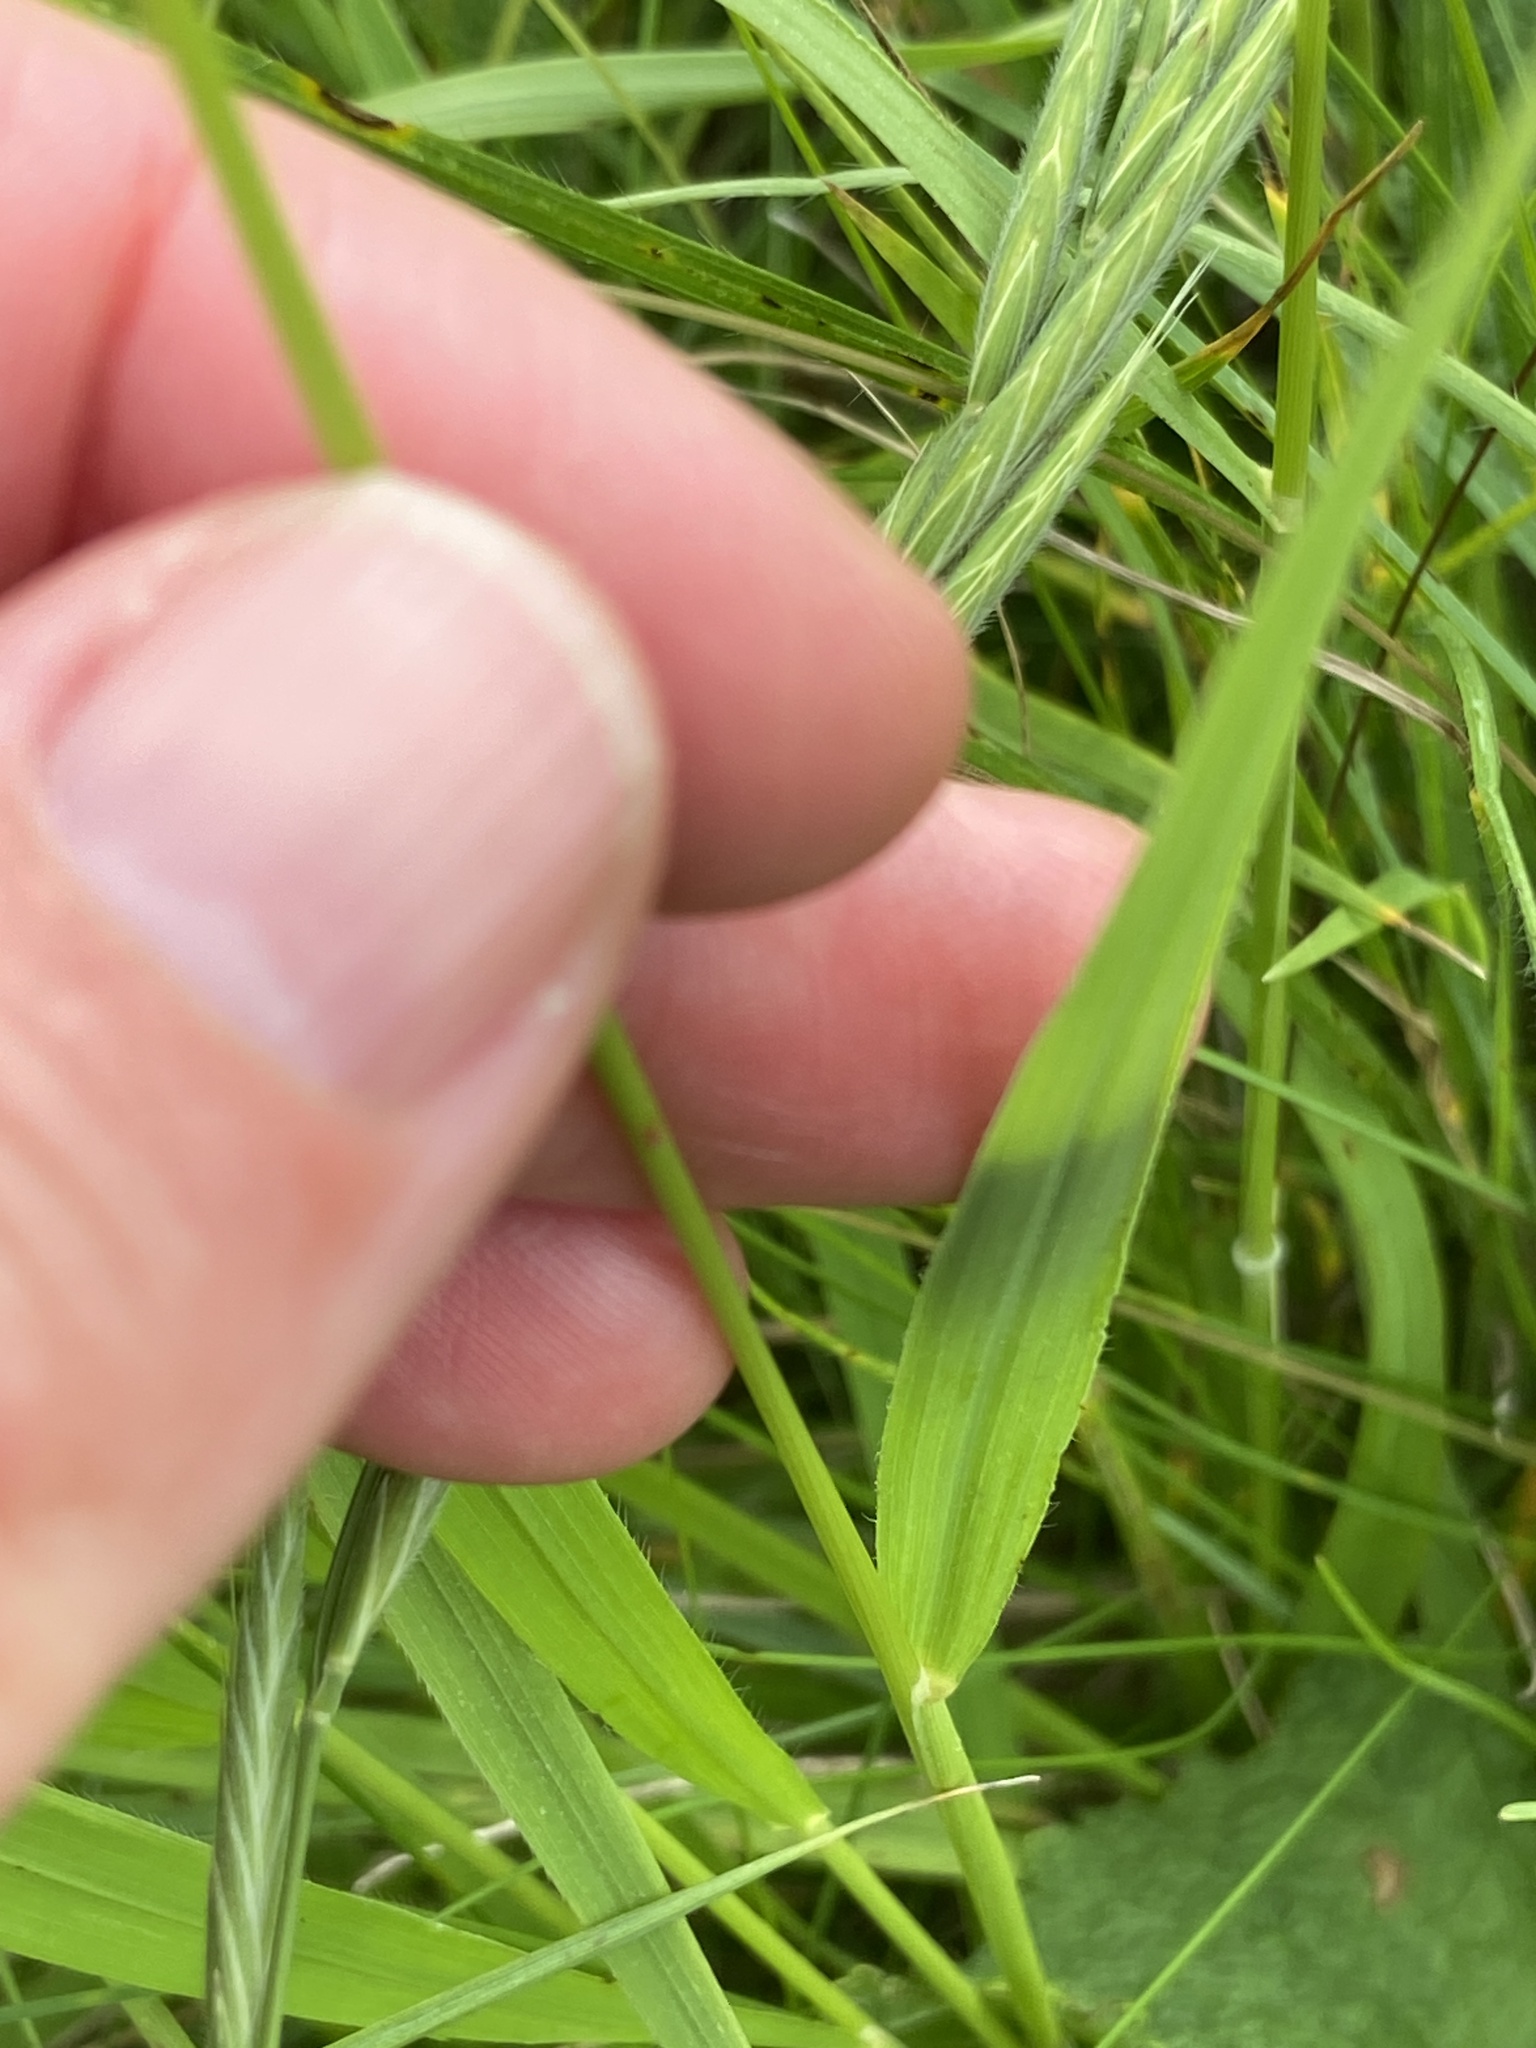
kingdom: Plantae
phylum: Tracheophyta
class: Liliopsida
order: Poales
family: Poaceae
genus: Brachypodium
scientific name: Brachypodium pinnatum
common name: Tor grass
